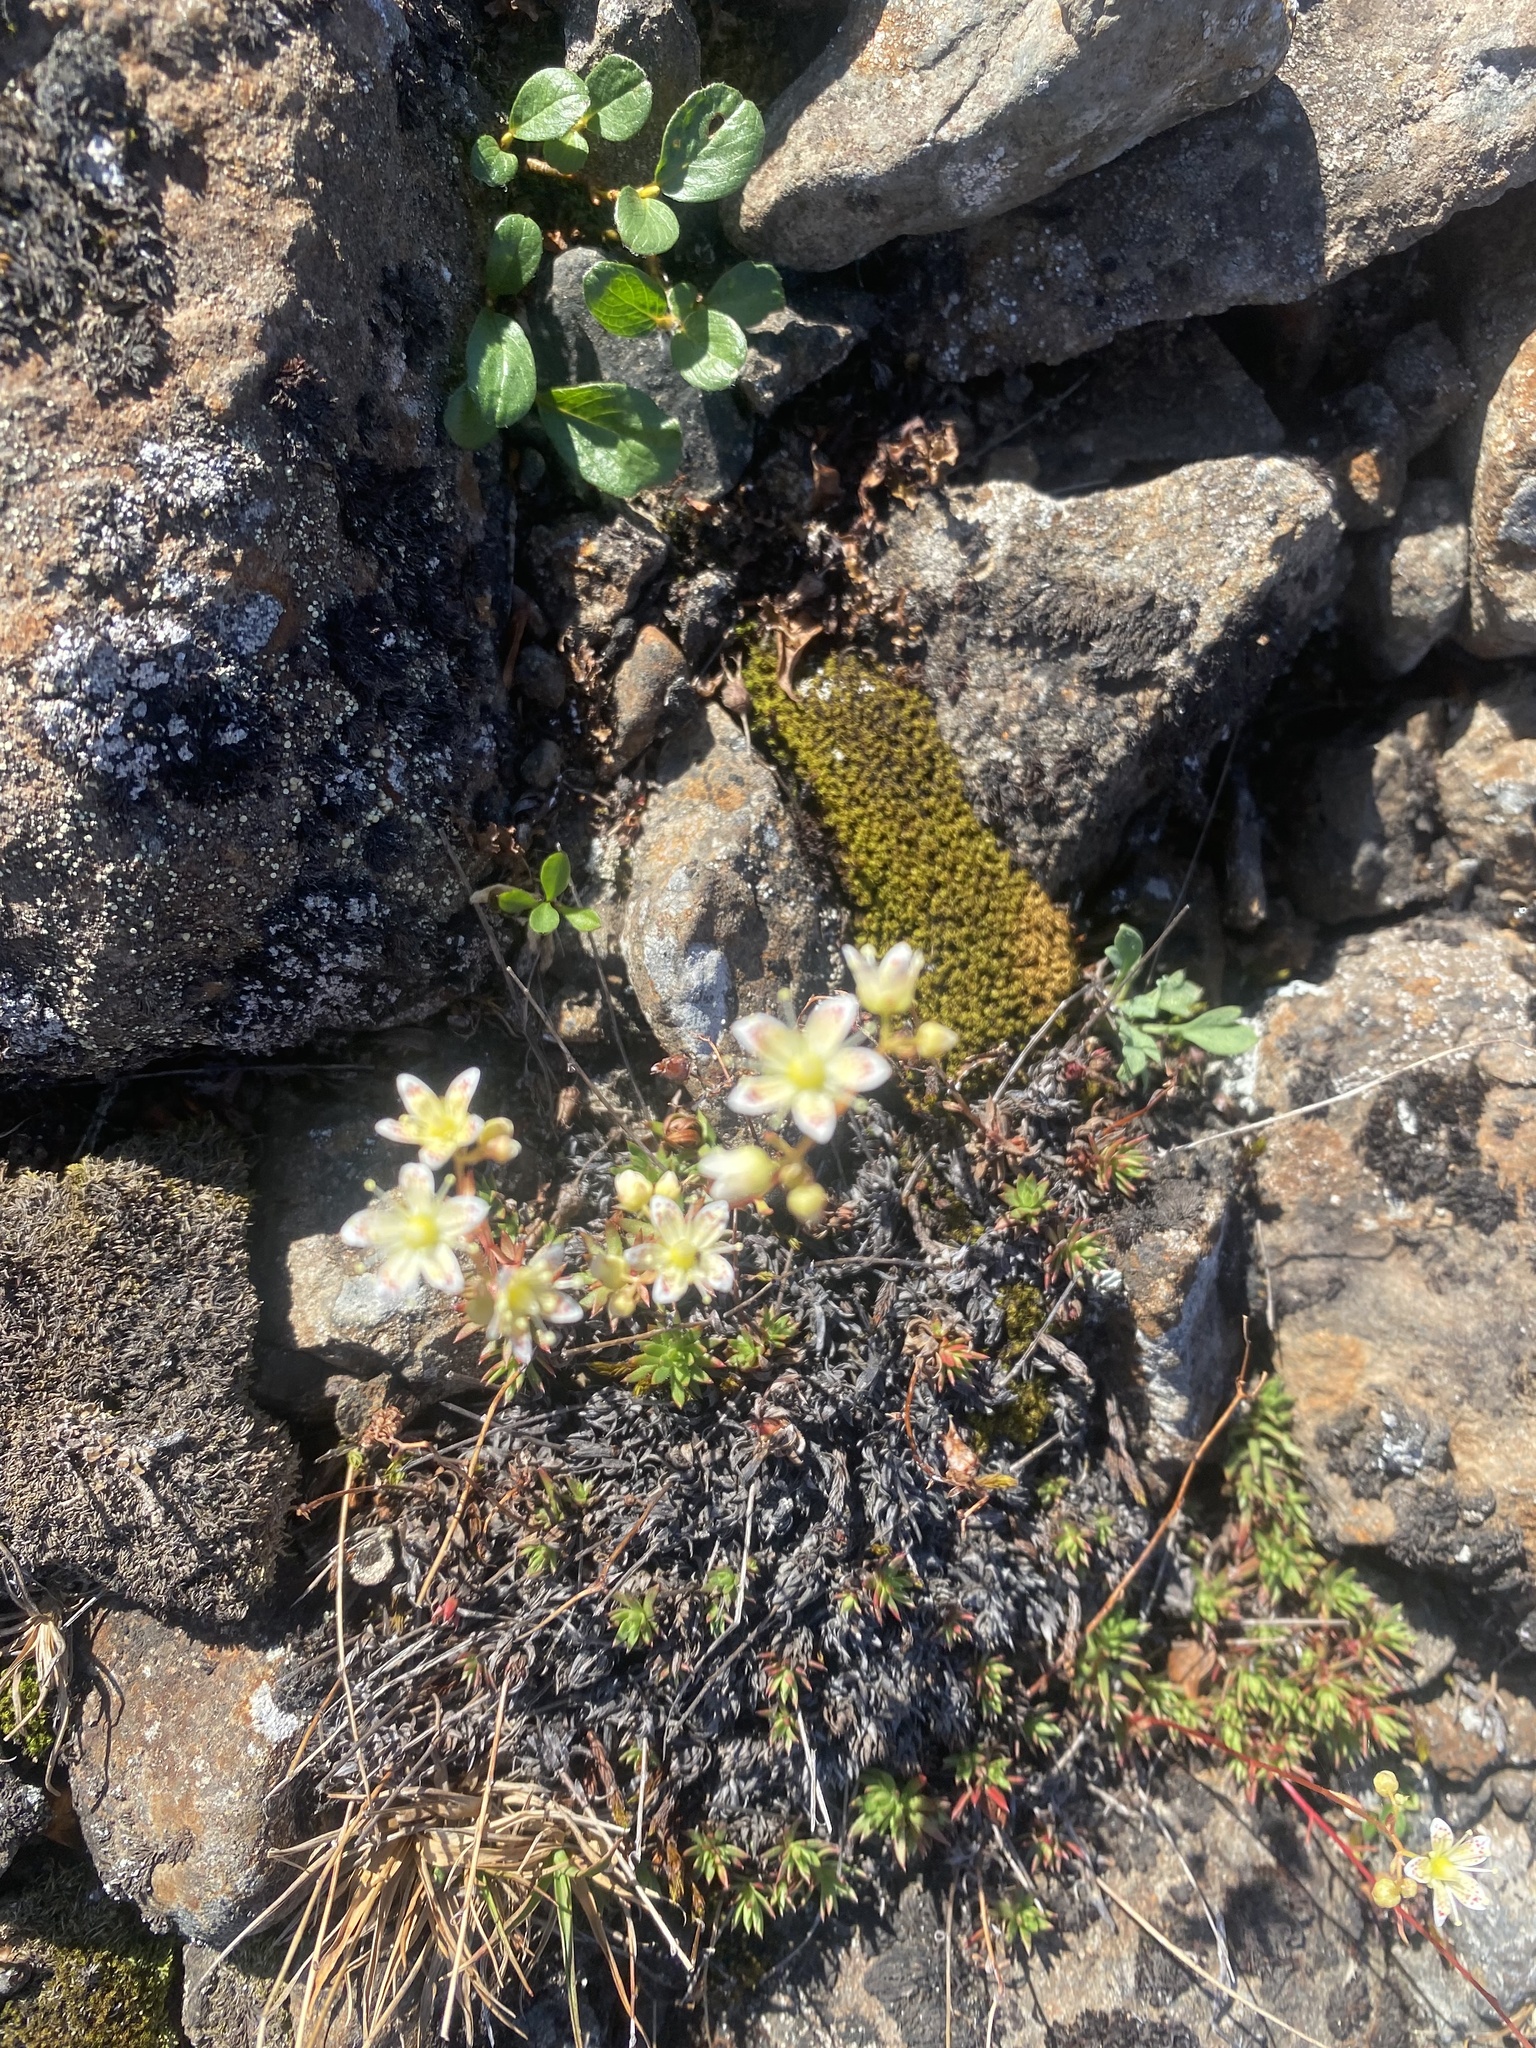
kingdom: Plantae
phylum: Tracheophyta
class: Magnoliopsida
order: Saxifragales
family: Saxifragaceae
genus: Saxifraga
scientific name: Saxifraga
